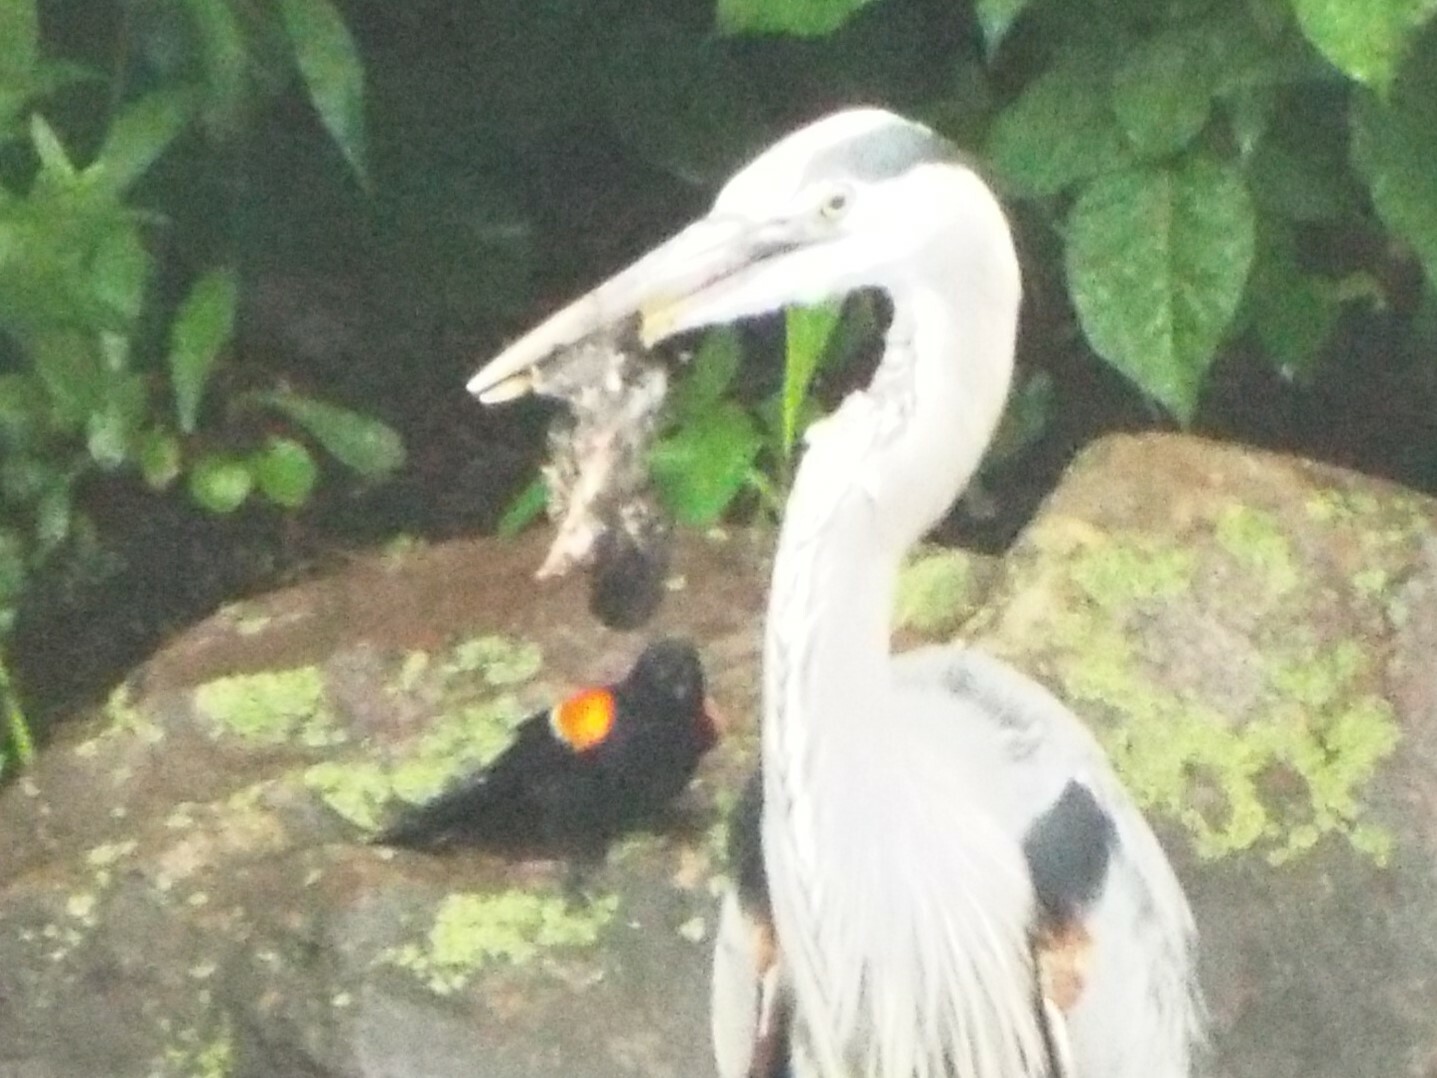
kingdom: Animalia
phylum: Chordata
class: Aves
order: Passeriformes
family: Icteridae
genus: Agelaius
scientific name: Agelaius phoeniceus
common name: Red-winged blackbird
